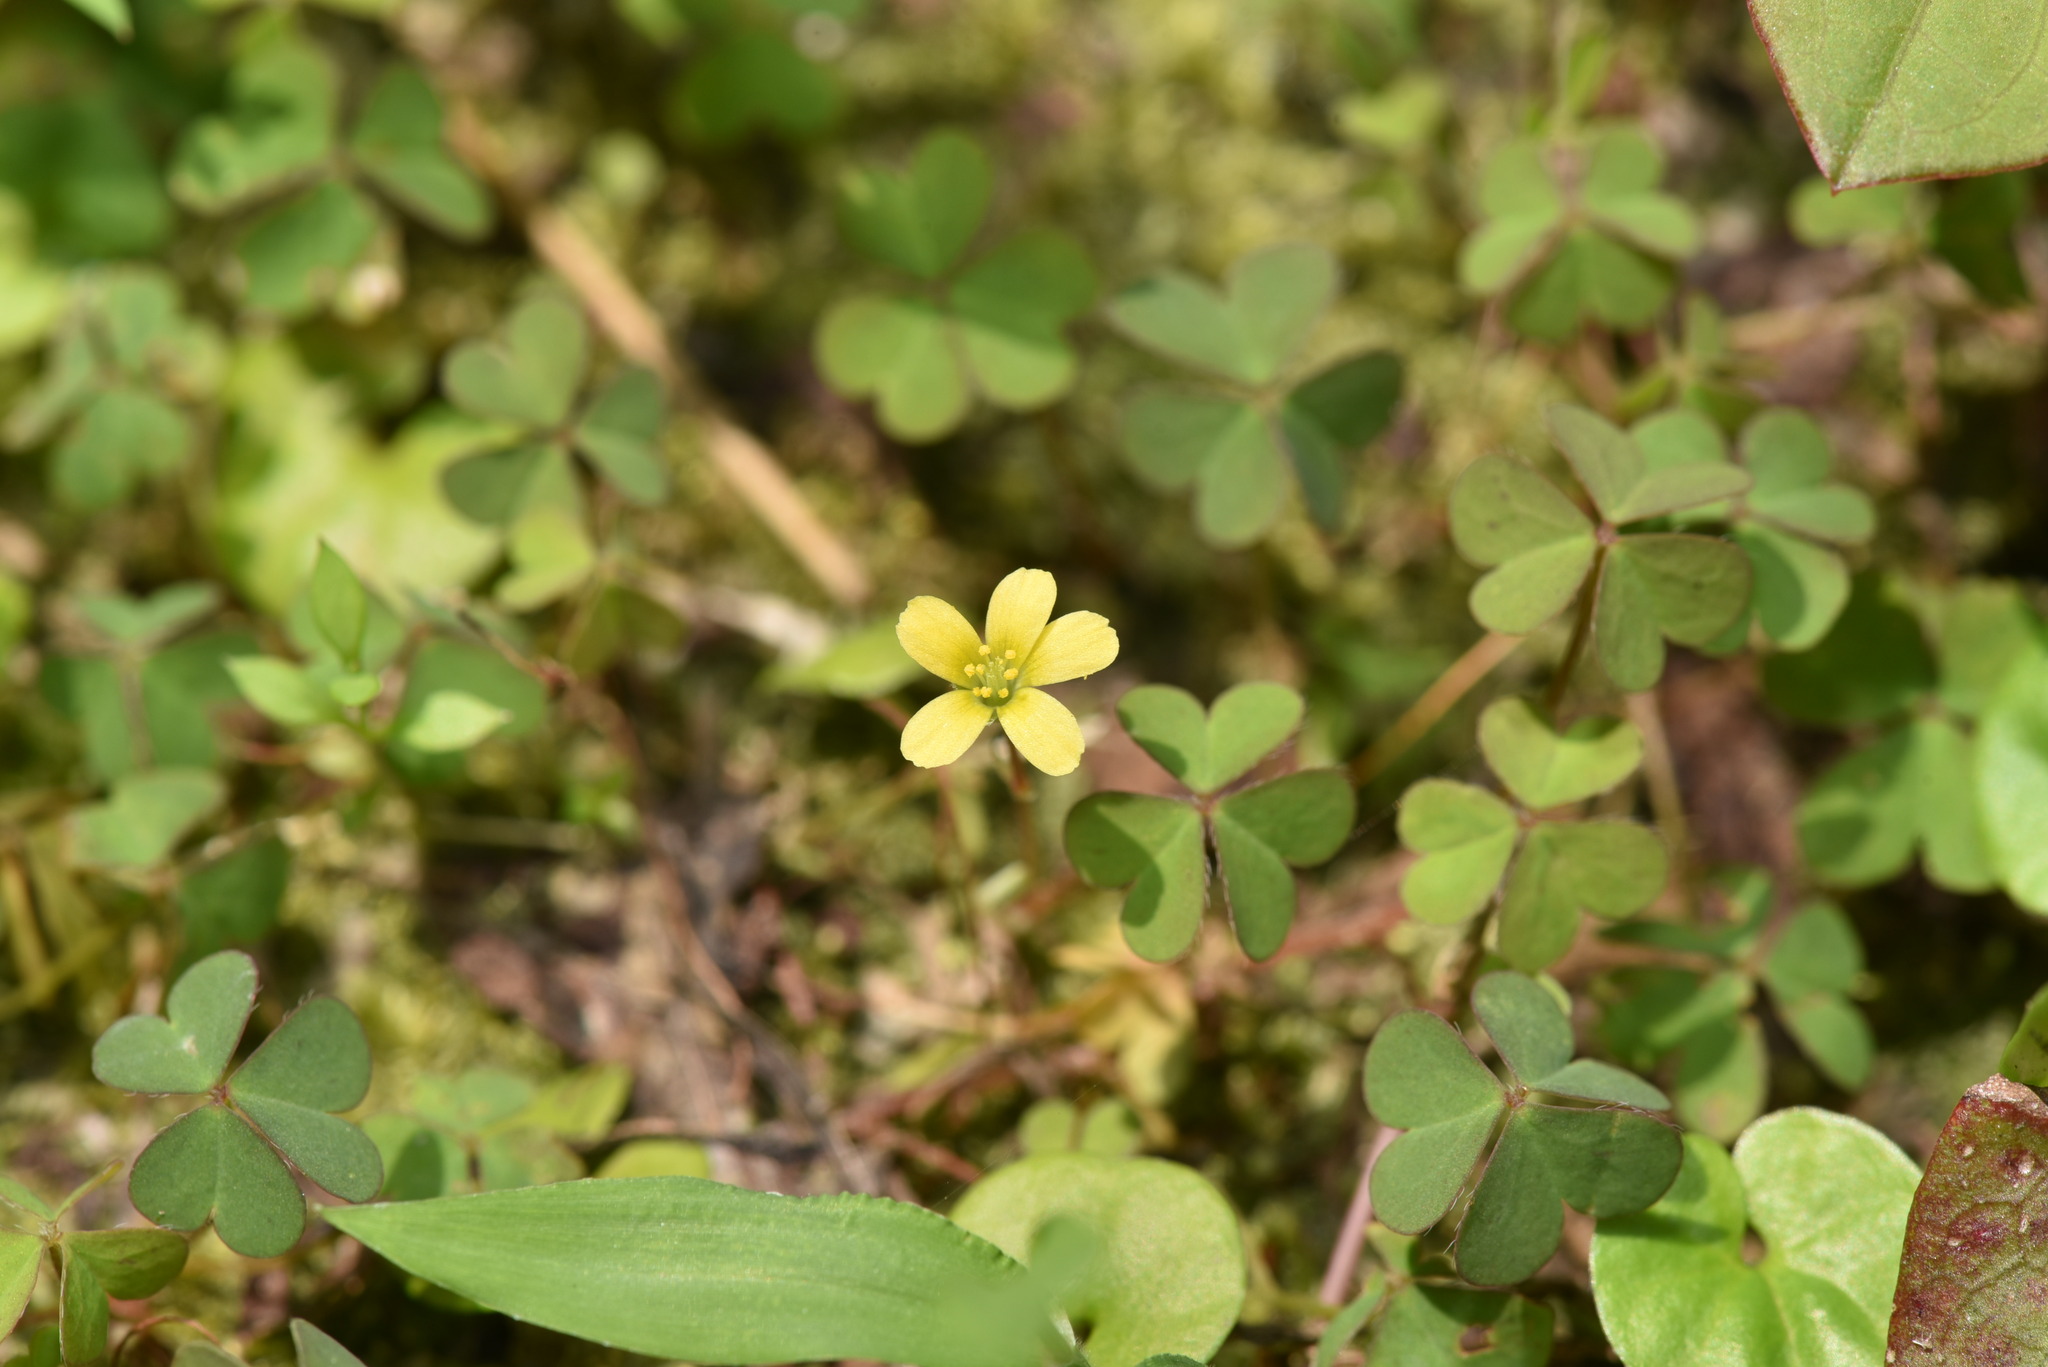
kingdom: Plantae
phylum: Tracheophyta
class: Magnoliopsida
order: Oxalidales
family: Oxalidaceae
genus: Oxalis
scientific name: Oxalis corniculata
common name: Procumbent yellow-sorrel
